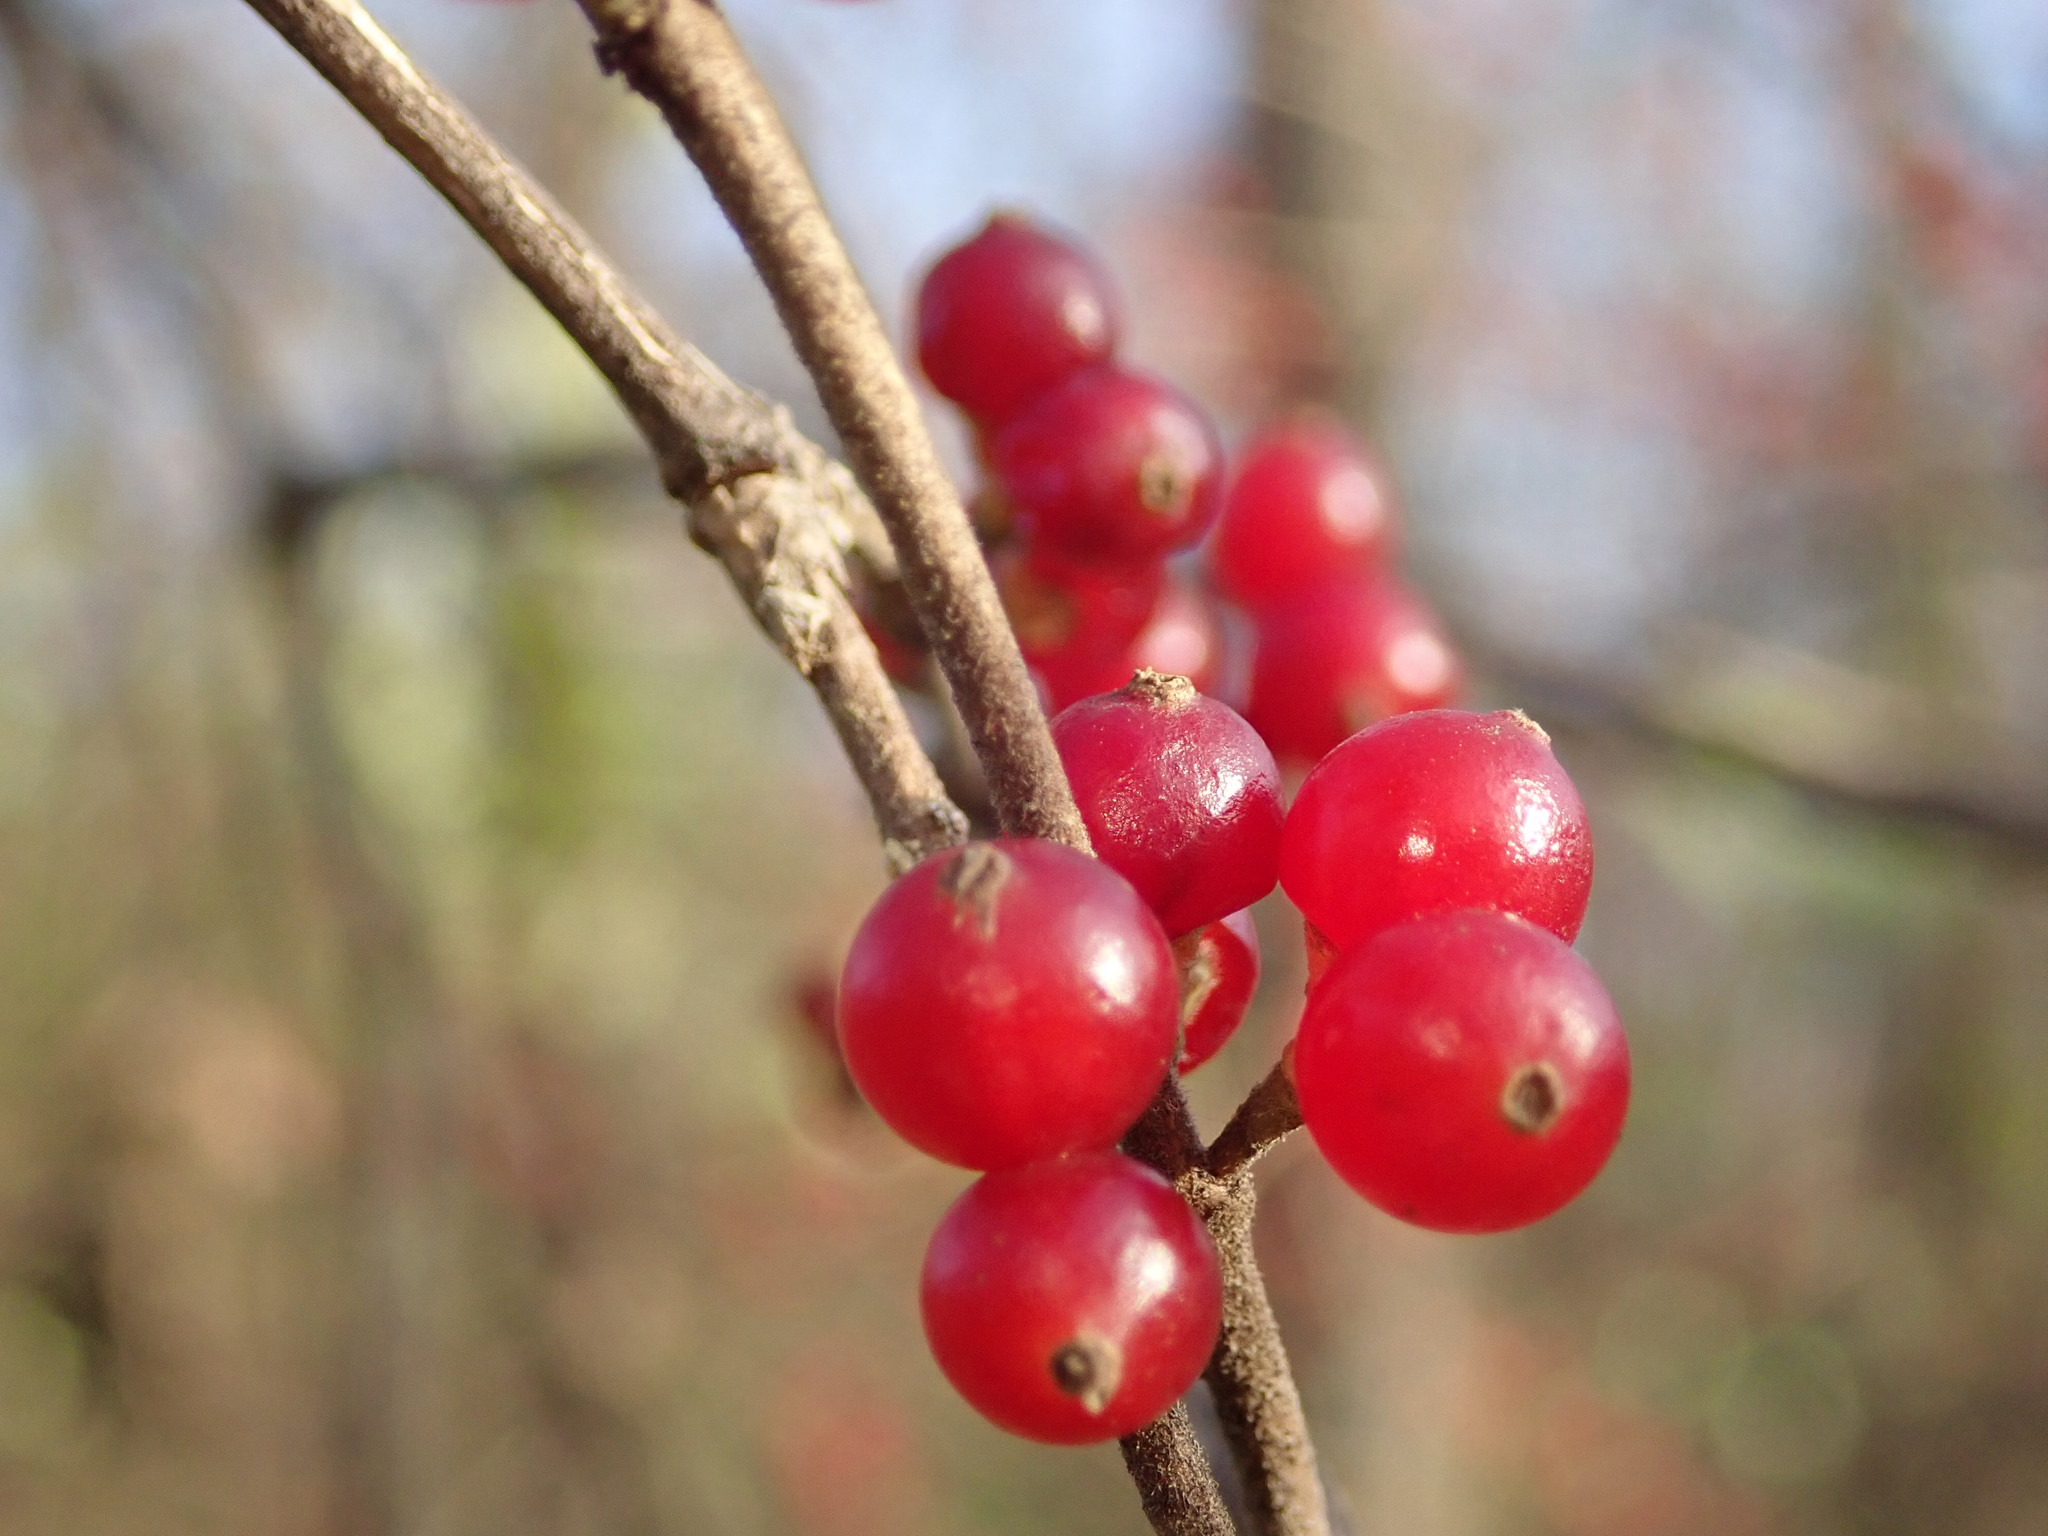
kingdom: Plantae
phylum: Tracheophyta
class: Magnoliopsida
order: Dipsacales
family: Caprifoliaceae
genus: Lonicera
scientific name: Lonicera maackii
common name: Amur honeysuckle
